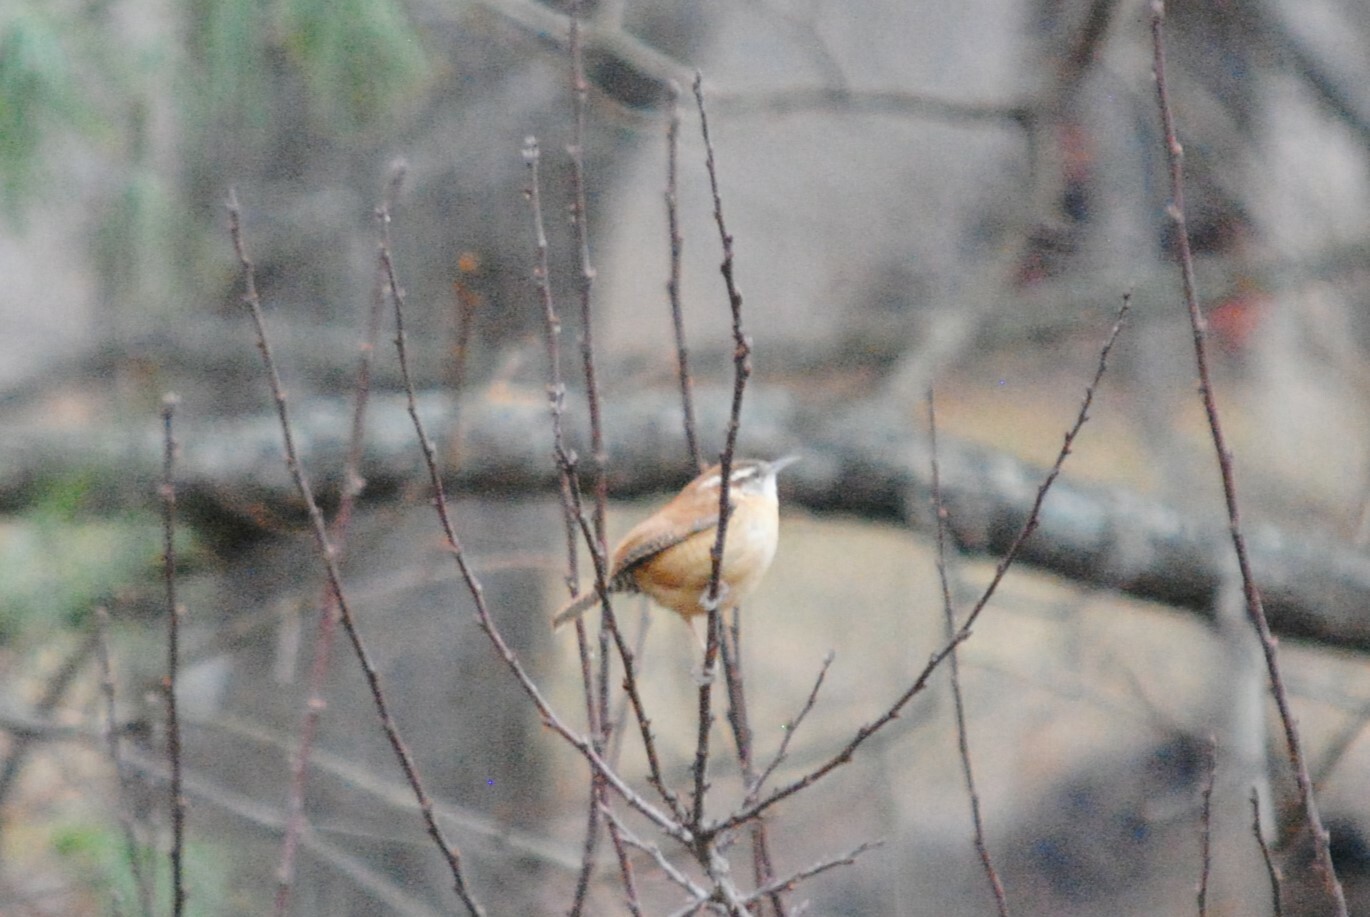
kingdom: Animalia
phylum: Chordata
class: Aves
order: Passeriformes
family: Troglodytidae
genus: Thryothorus
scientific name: Thryothorus ludovicianus
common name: Carolina wren
